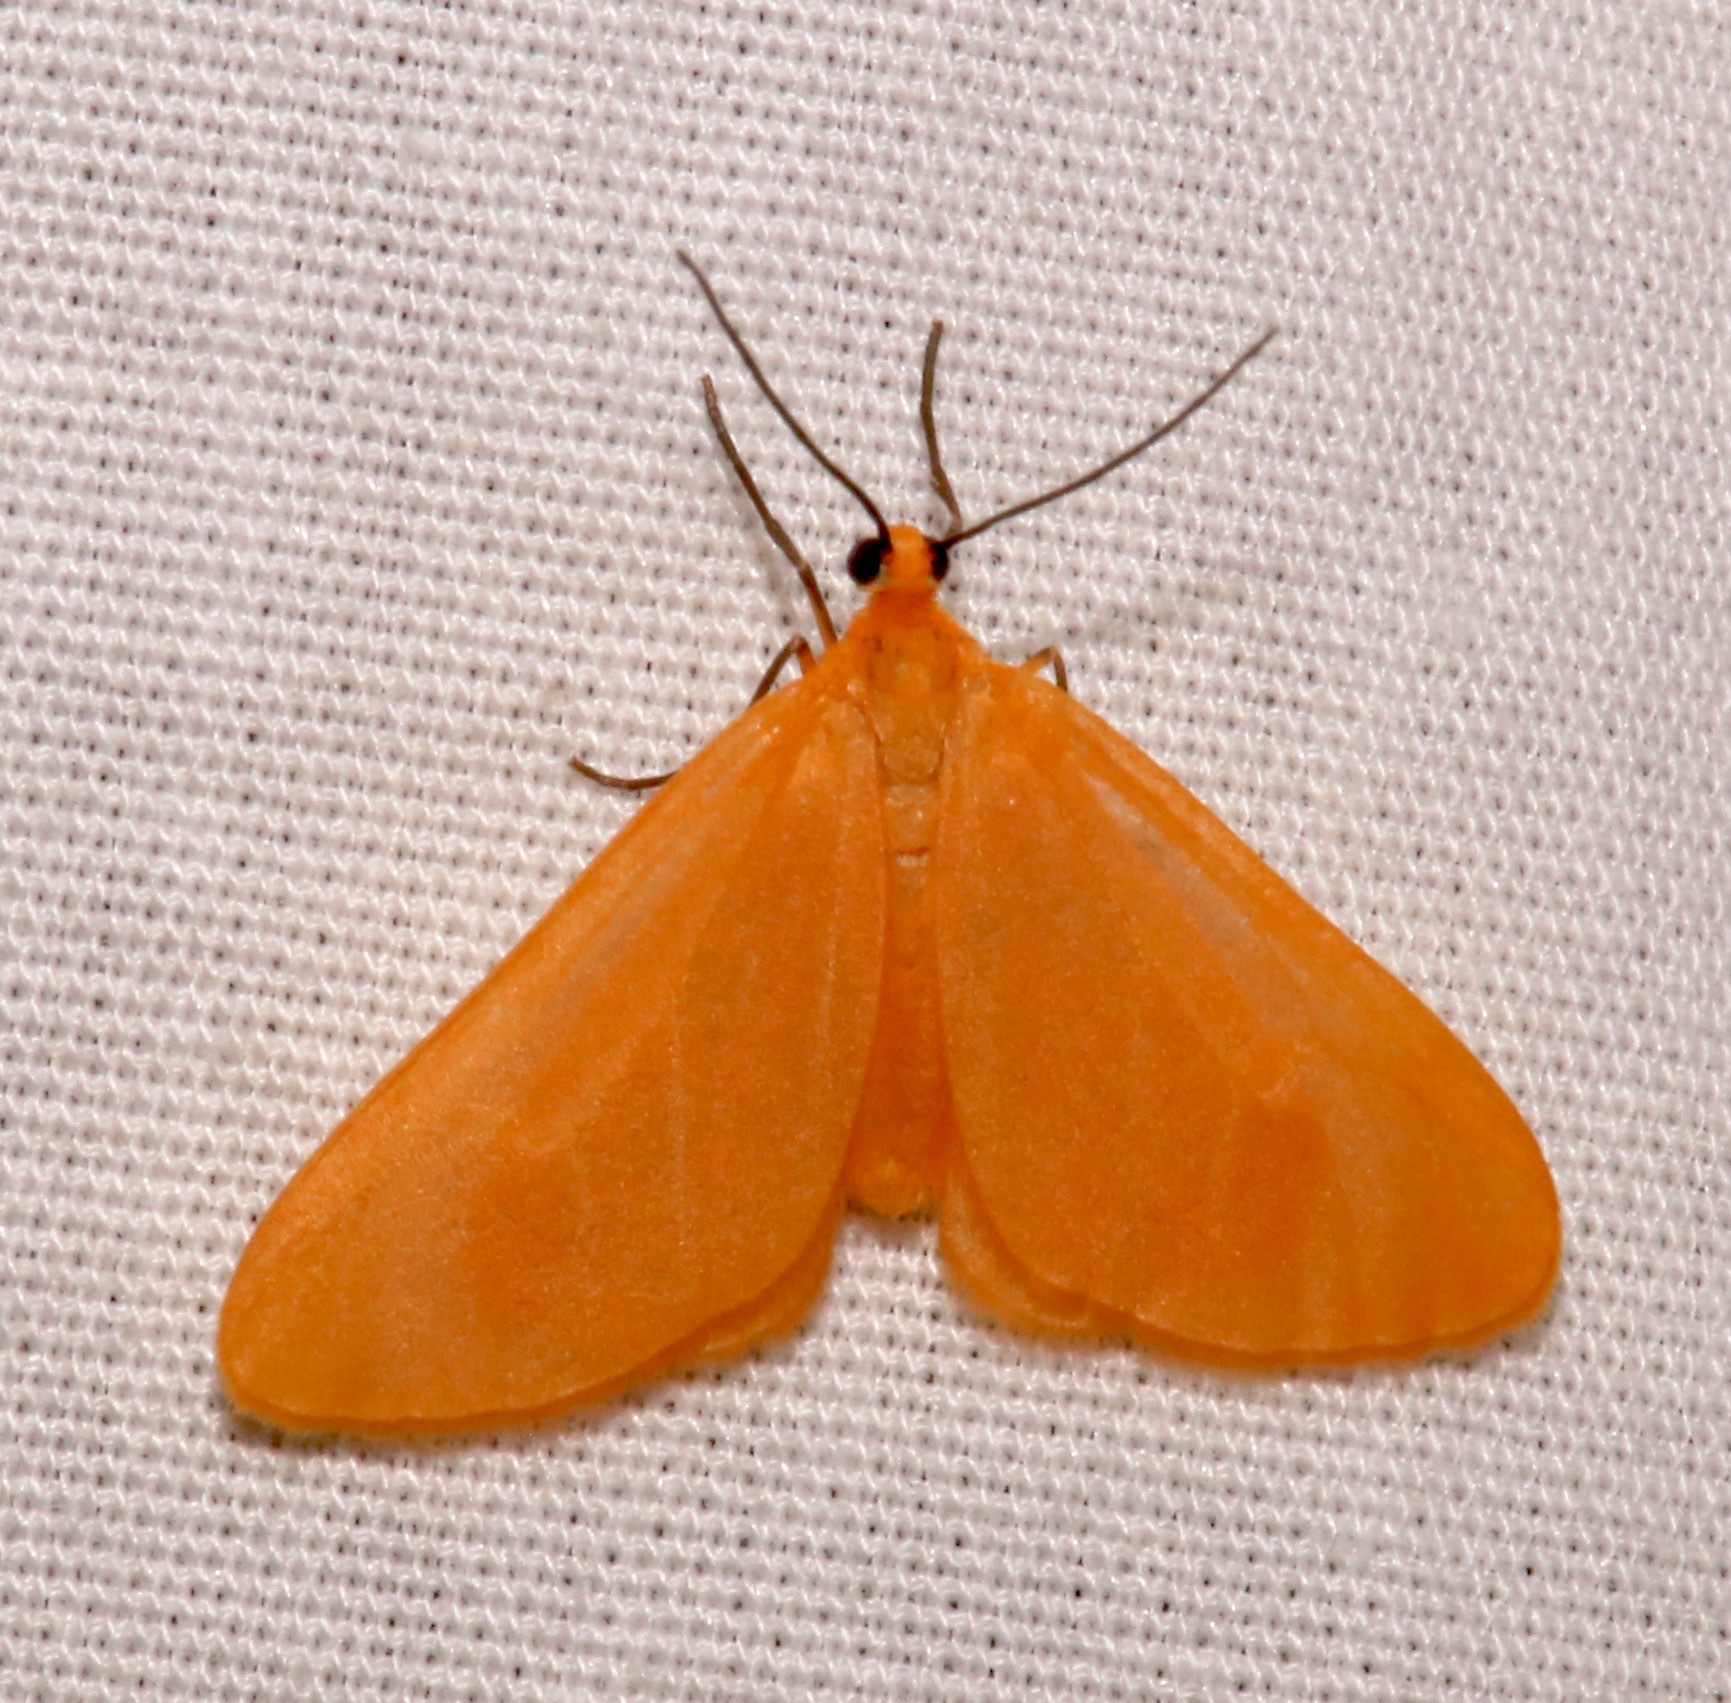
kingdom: Animalia
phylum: Arthropoda
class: Insecta
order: Lepidoptera
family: Geometridae
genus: Eubaphe
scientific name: Eubaphe unicolor
